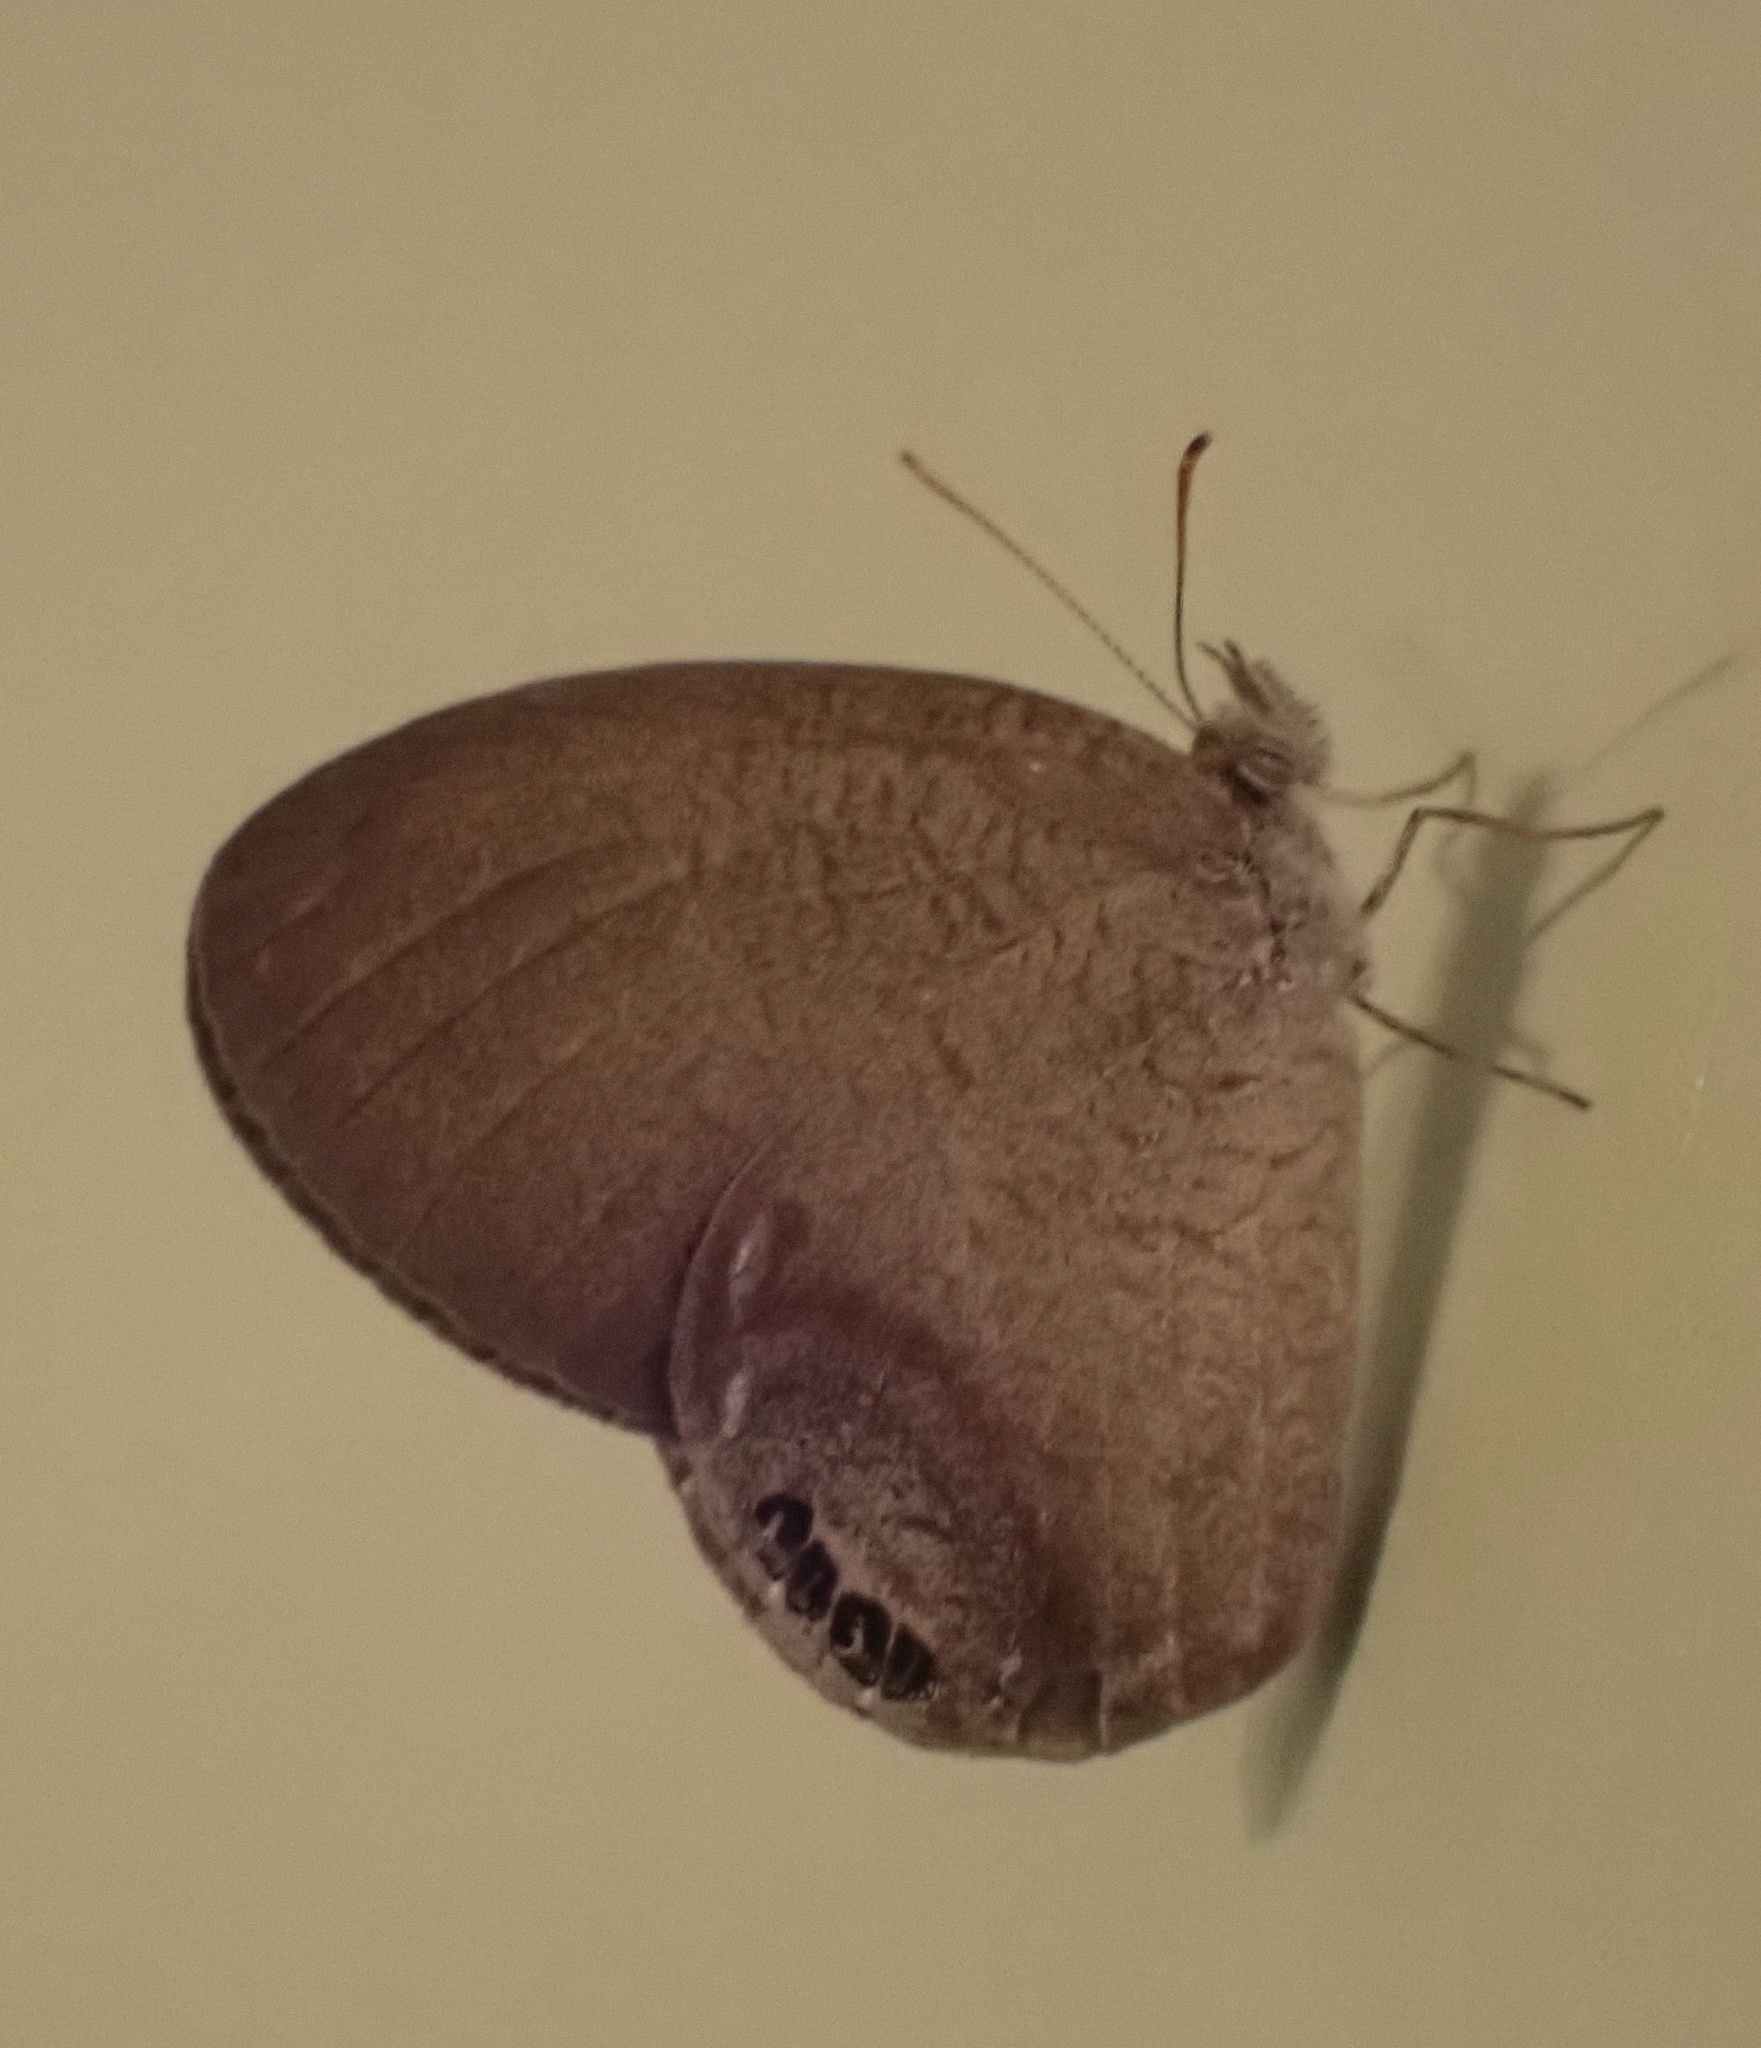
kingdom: Animalia
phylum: Arthropoda
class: Insecta
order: Lepidoptera
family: Nymphalidae
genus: Euptychia
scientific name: Euptychia cornelius
